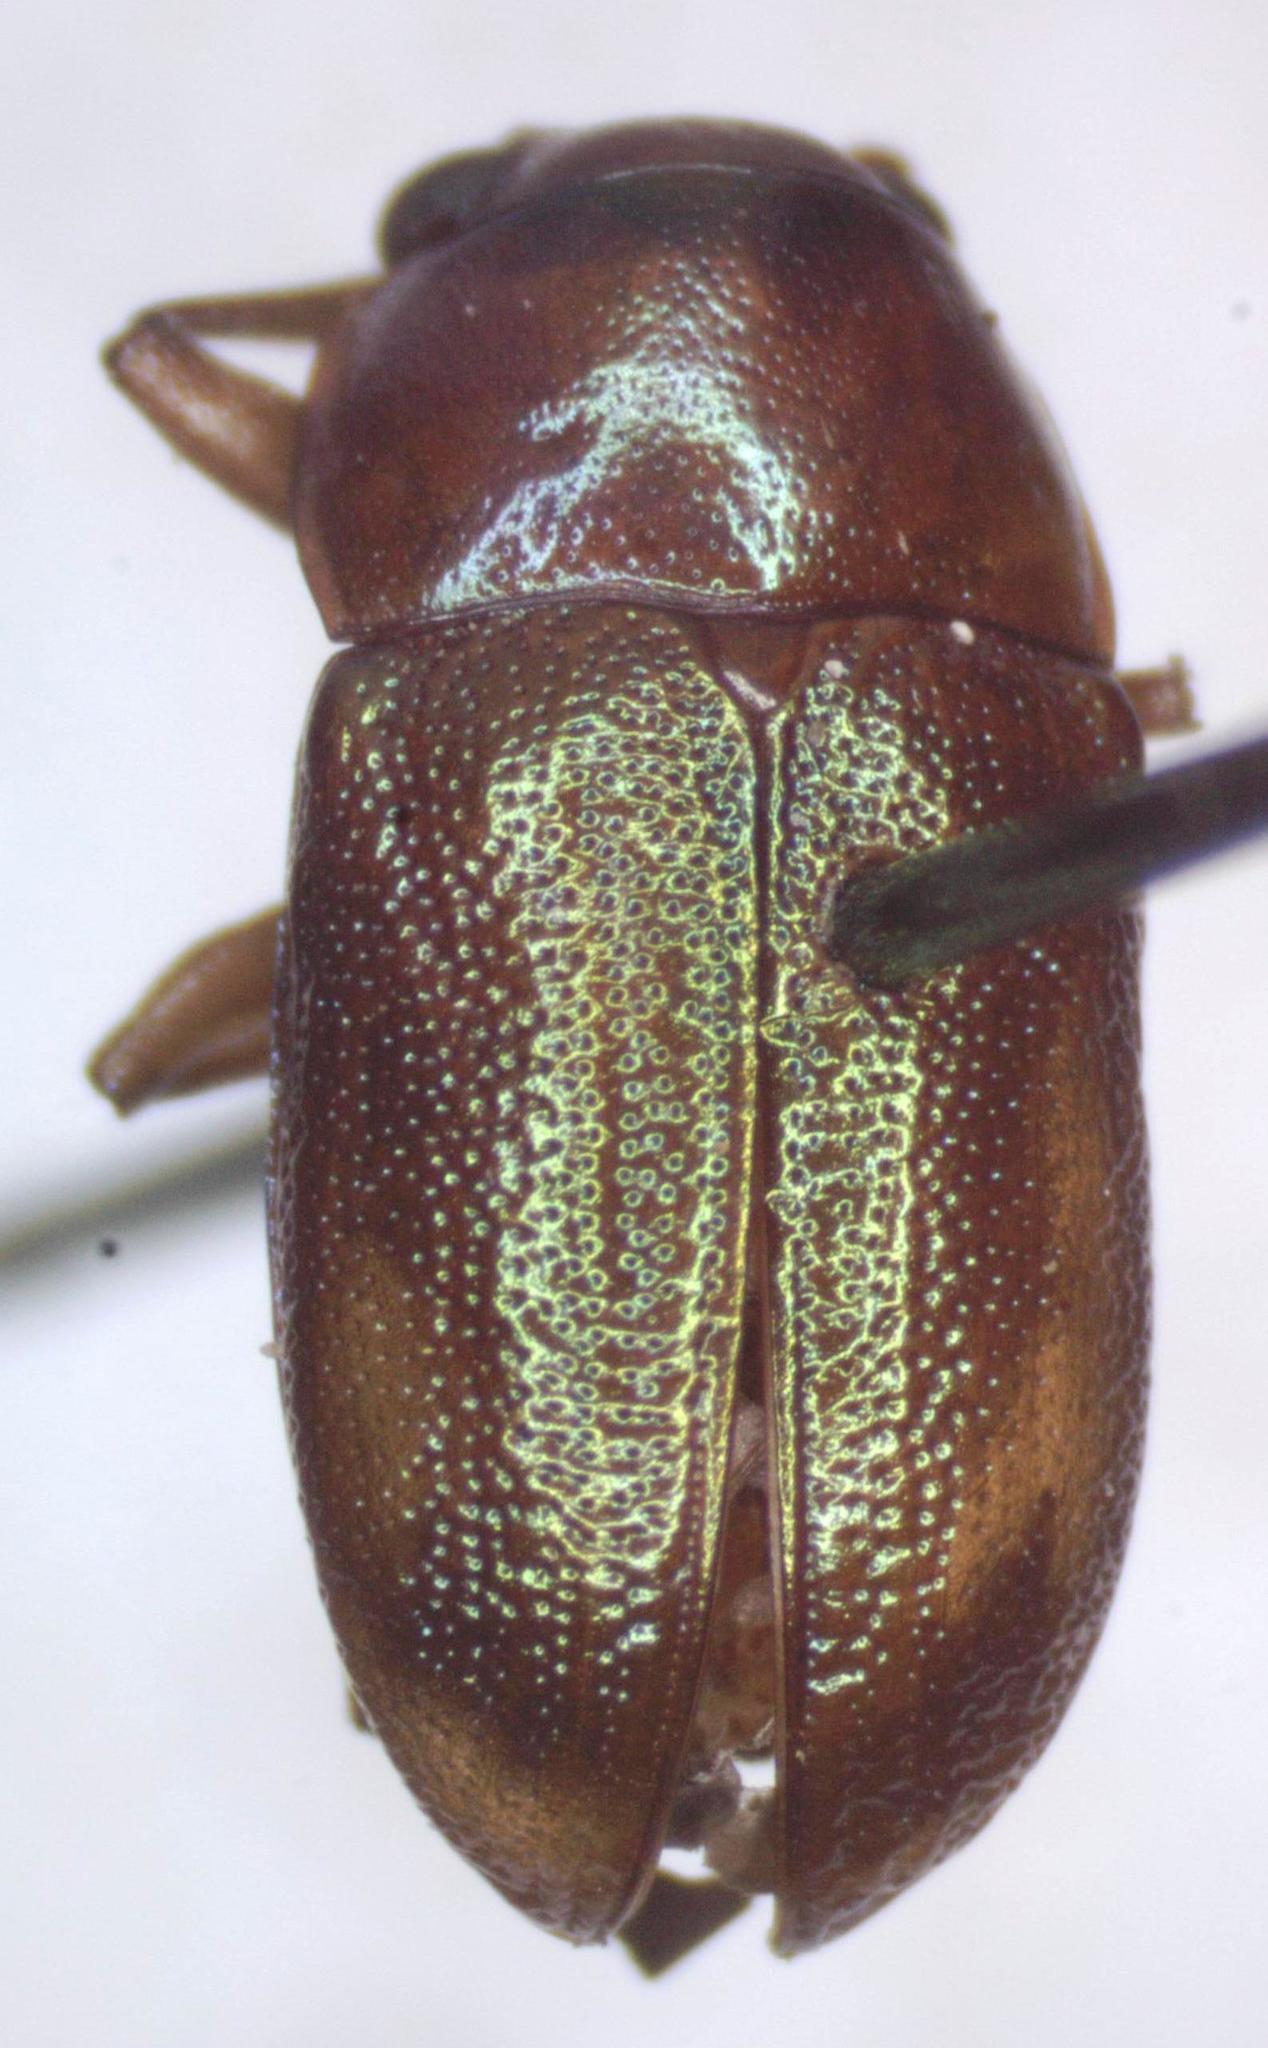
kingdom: Animalia
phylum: Arthropoda
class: Insecta
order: Coleoptera
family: Chrysomelidae
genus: Talurus
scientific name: Talurus
